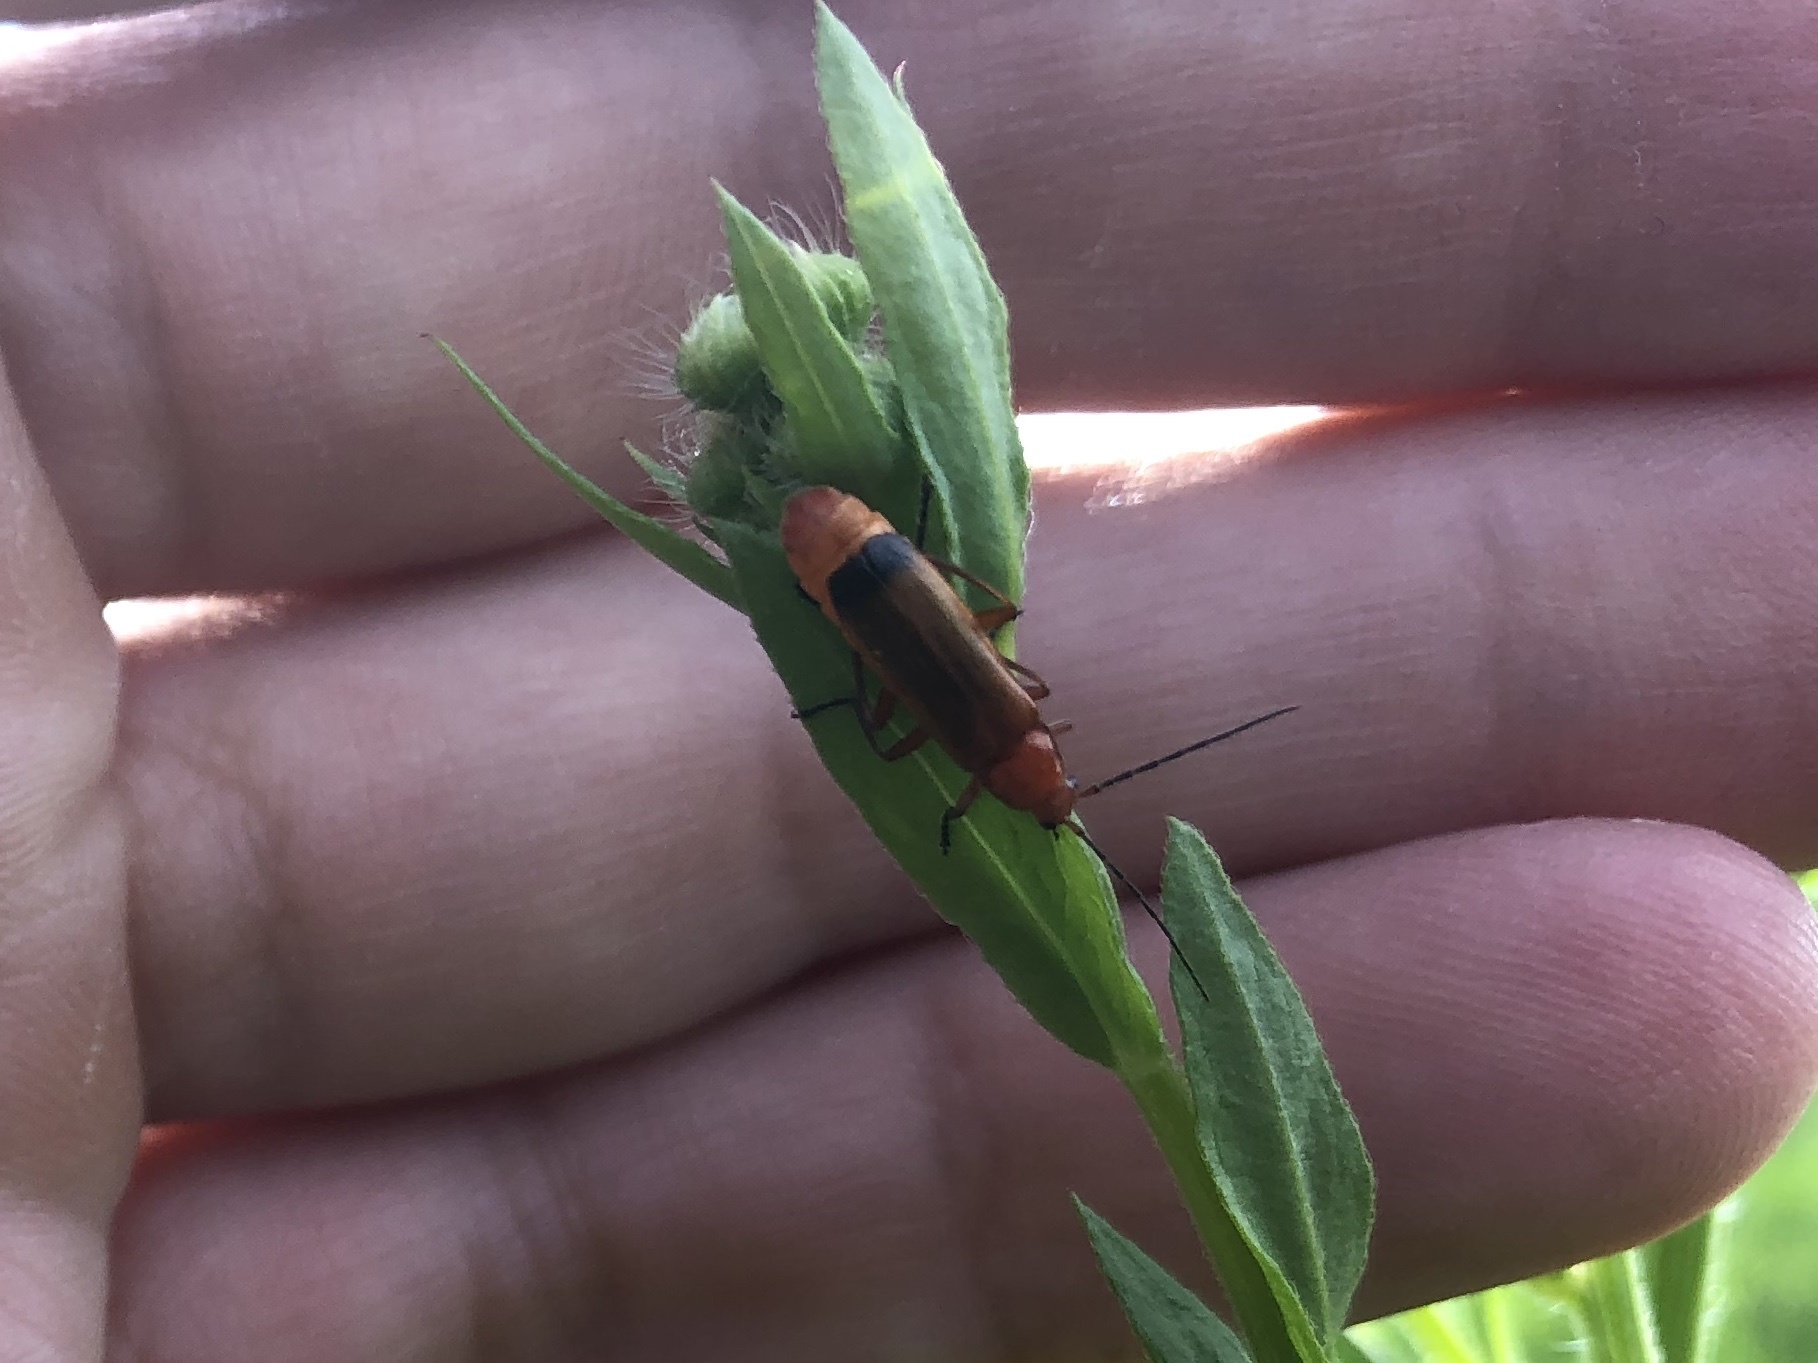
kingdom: Animalia
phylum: Arthropoda
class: Insecta
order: Coleoptera
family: Cantharidae
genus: Rhagonycha
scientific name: Rhagonycha fulva
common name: Common red soldier beetle
